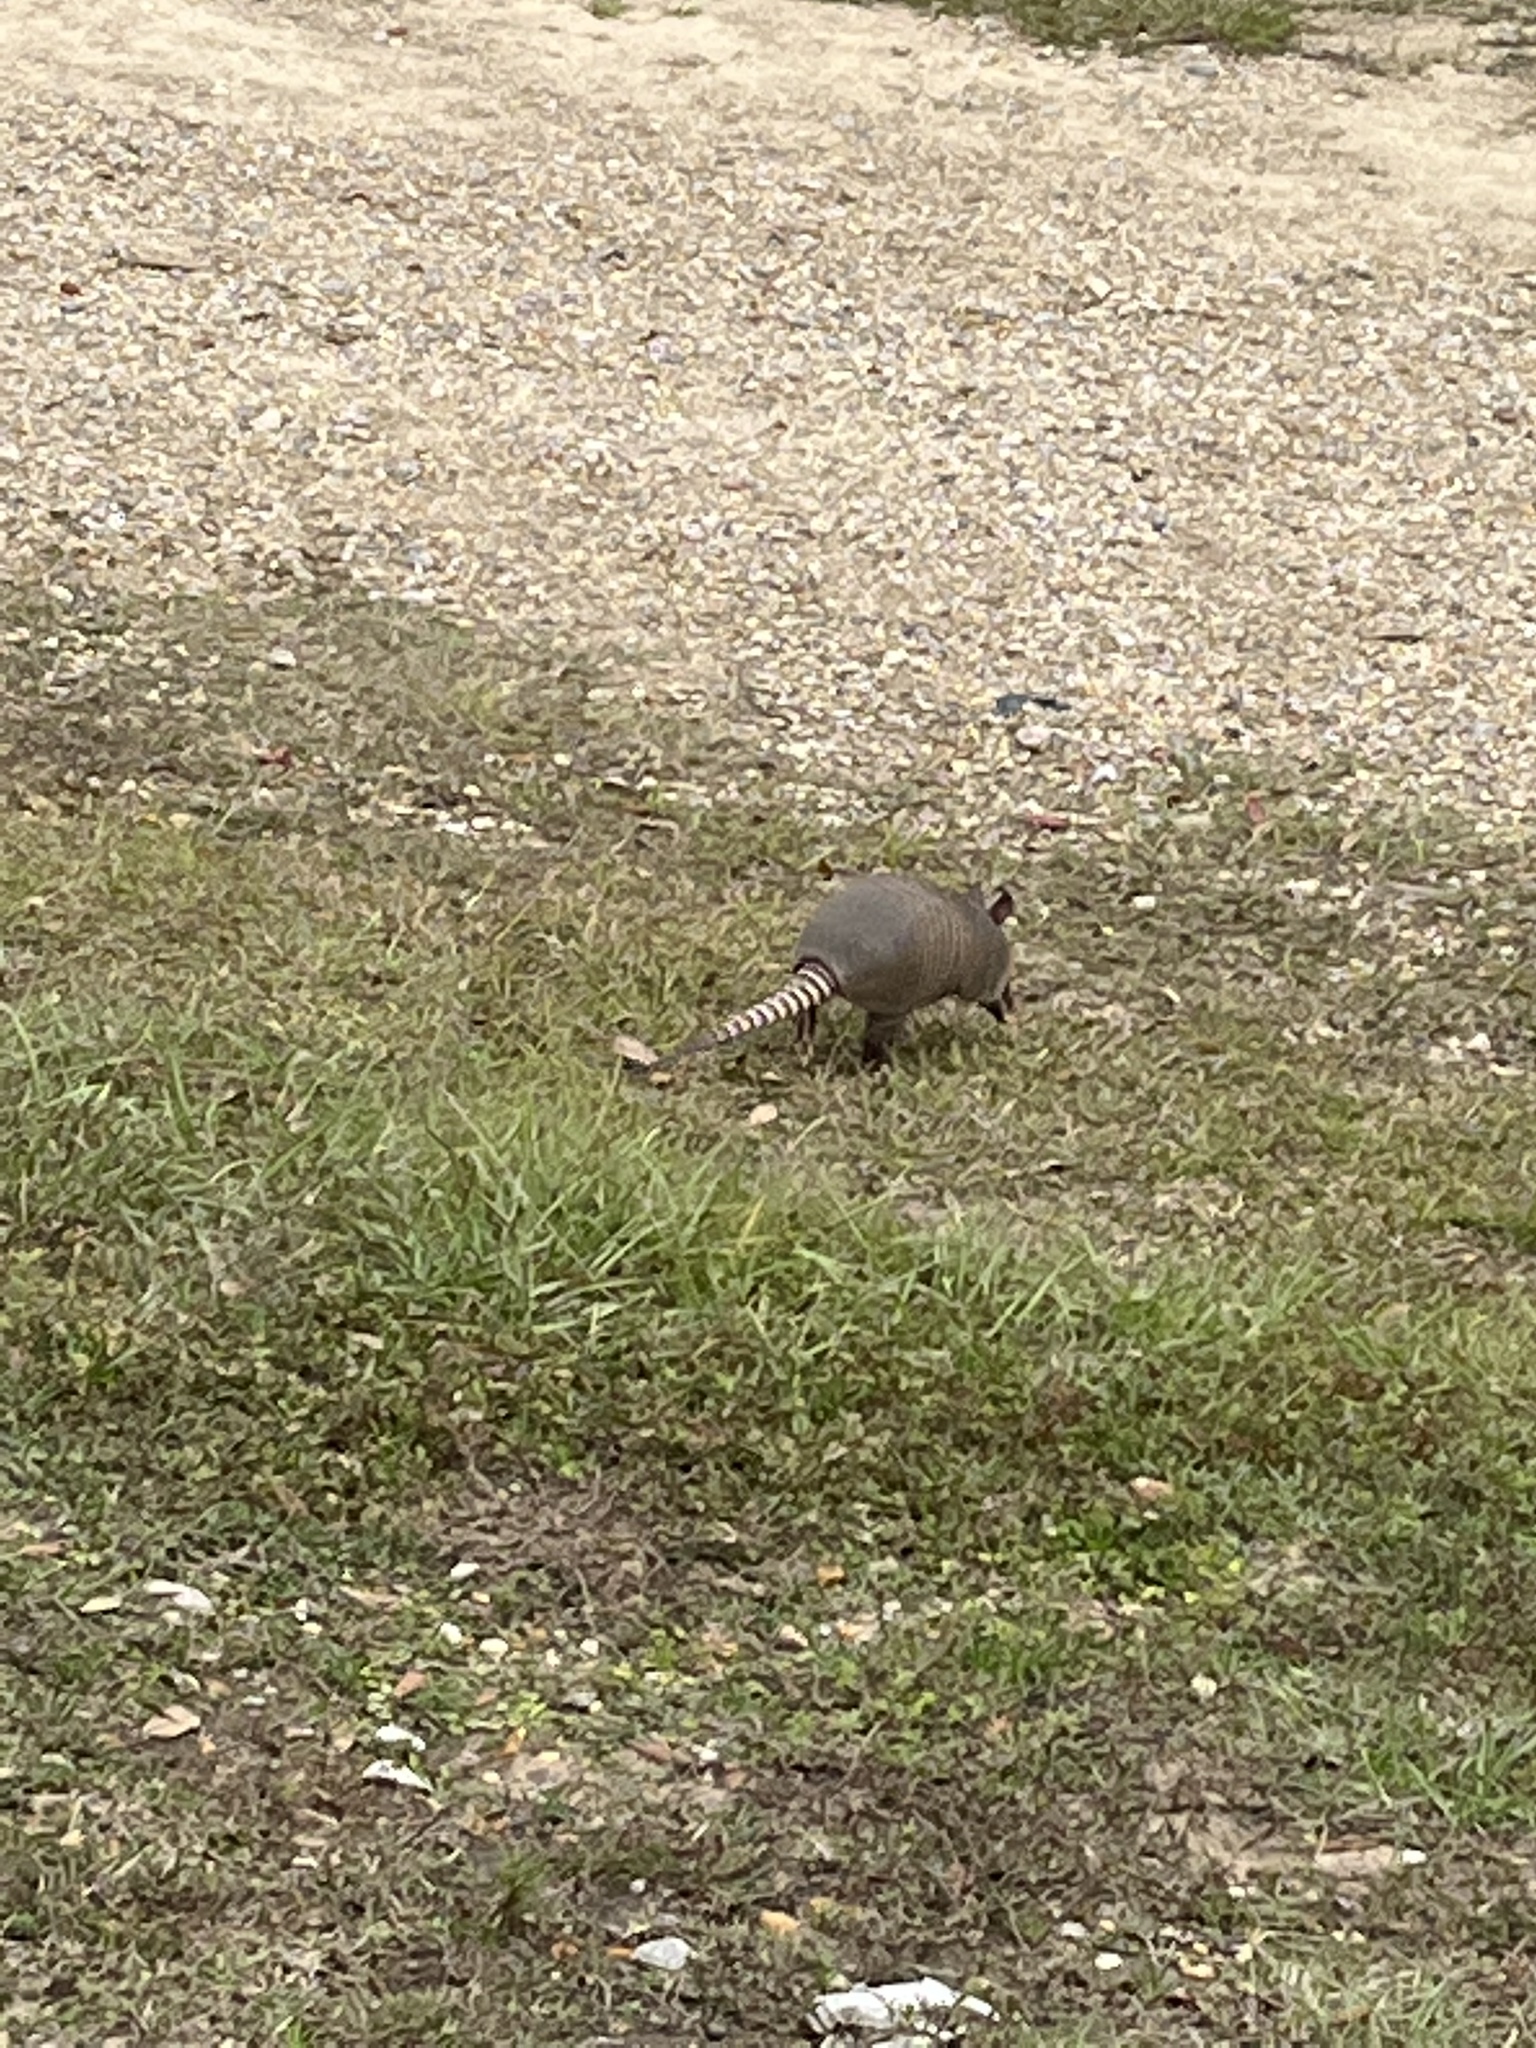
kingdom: Animalia
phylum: Chordata
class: Mammalia
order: Cingulata
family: Dasypodidae
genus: Dasypus
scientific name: Dasypus novemcinctus
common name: Nine-banded armadillo
